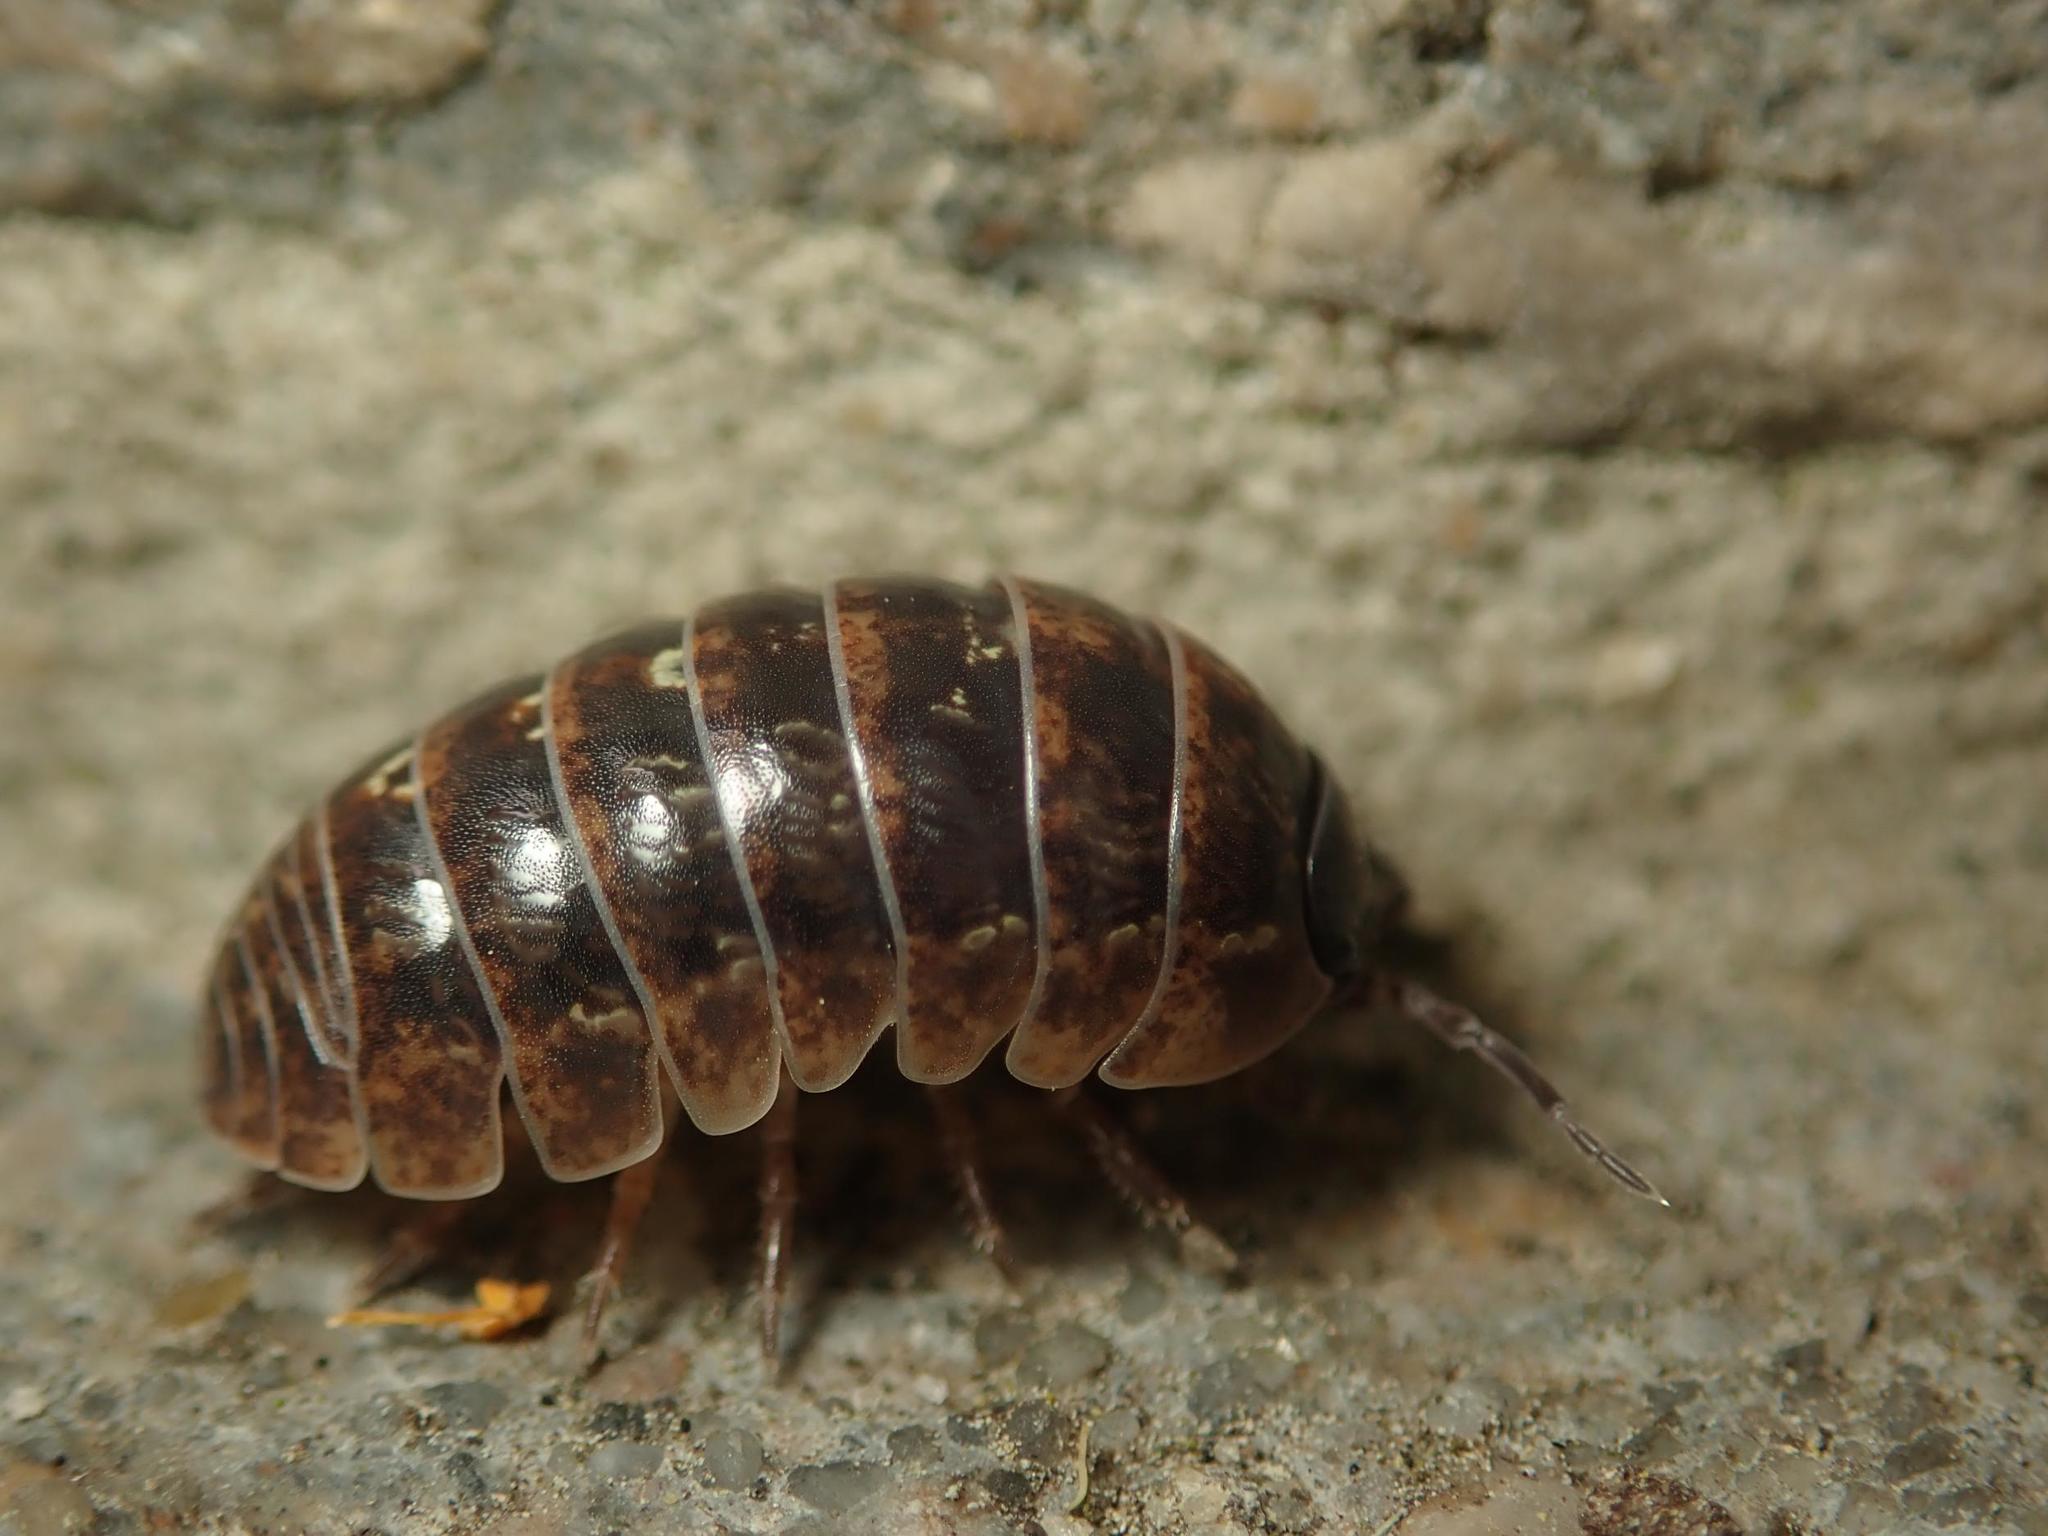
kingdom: Animalia
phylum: Arthropoda
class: Malacostraca
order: Isopoda
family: Armadillidiidae
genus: Armadillidium
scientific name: Armadillidium vulgare
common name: Common pill woodlouse
